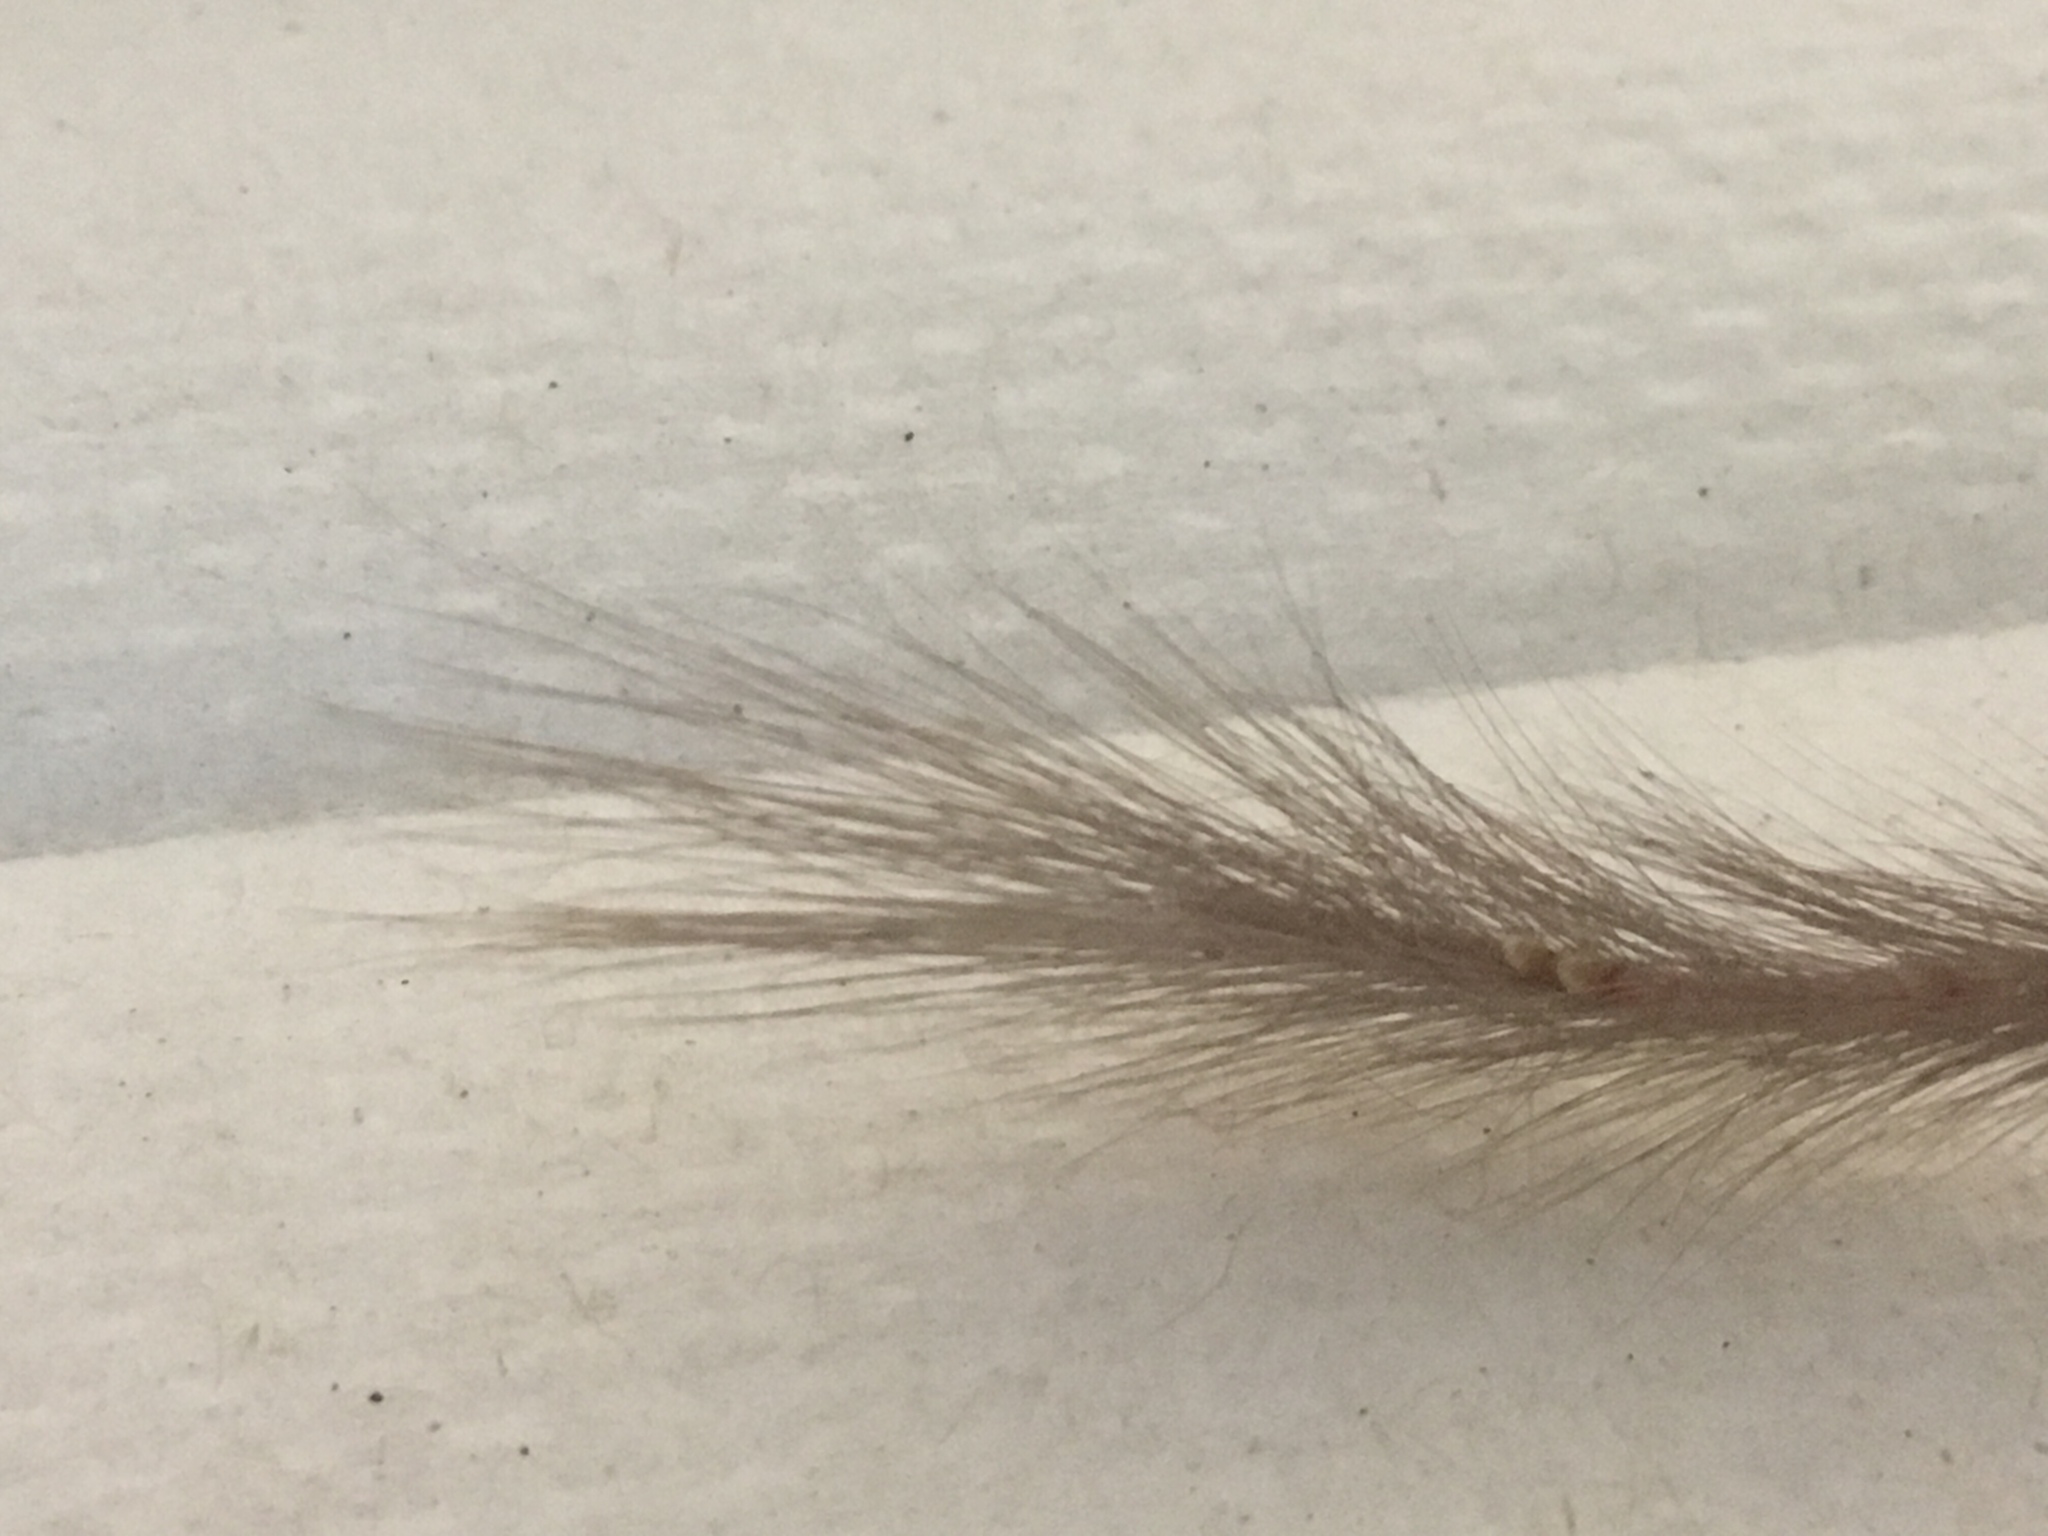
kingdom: Animalia
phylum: Chordata
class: Mammalia
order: Rodentia
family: Heteromyidae
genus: Chaetodipus
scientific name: Chaetodipus fallax
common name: San diego pocket mouse
